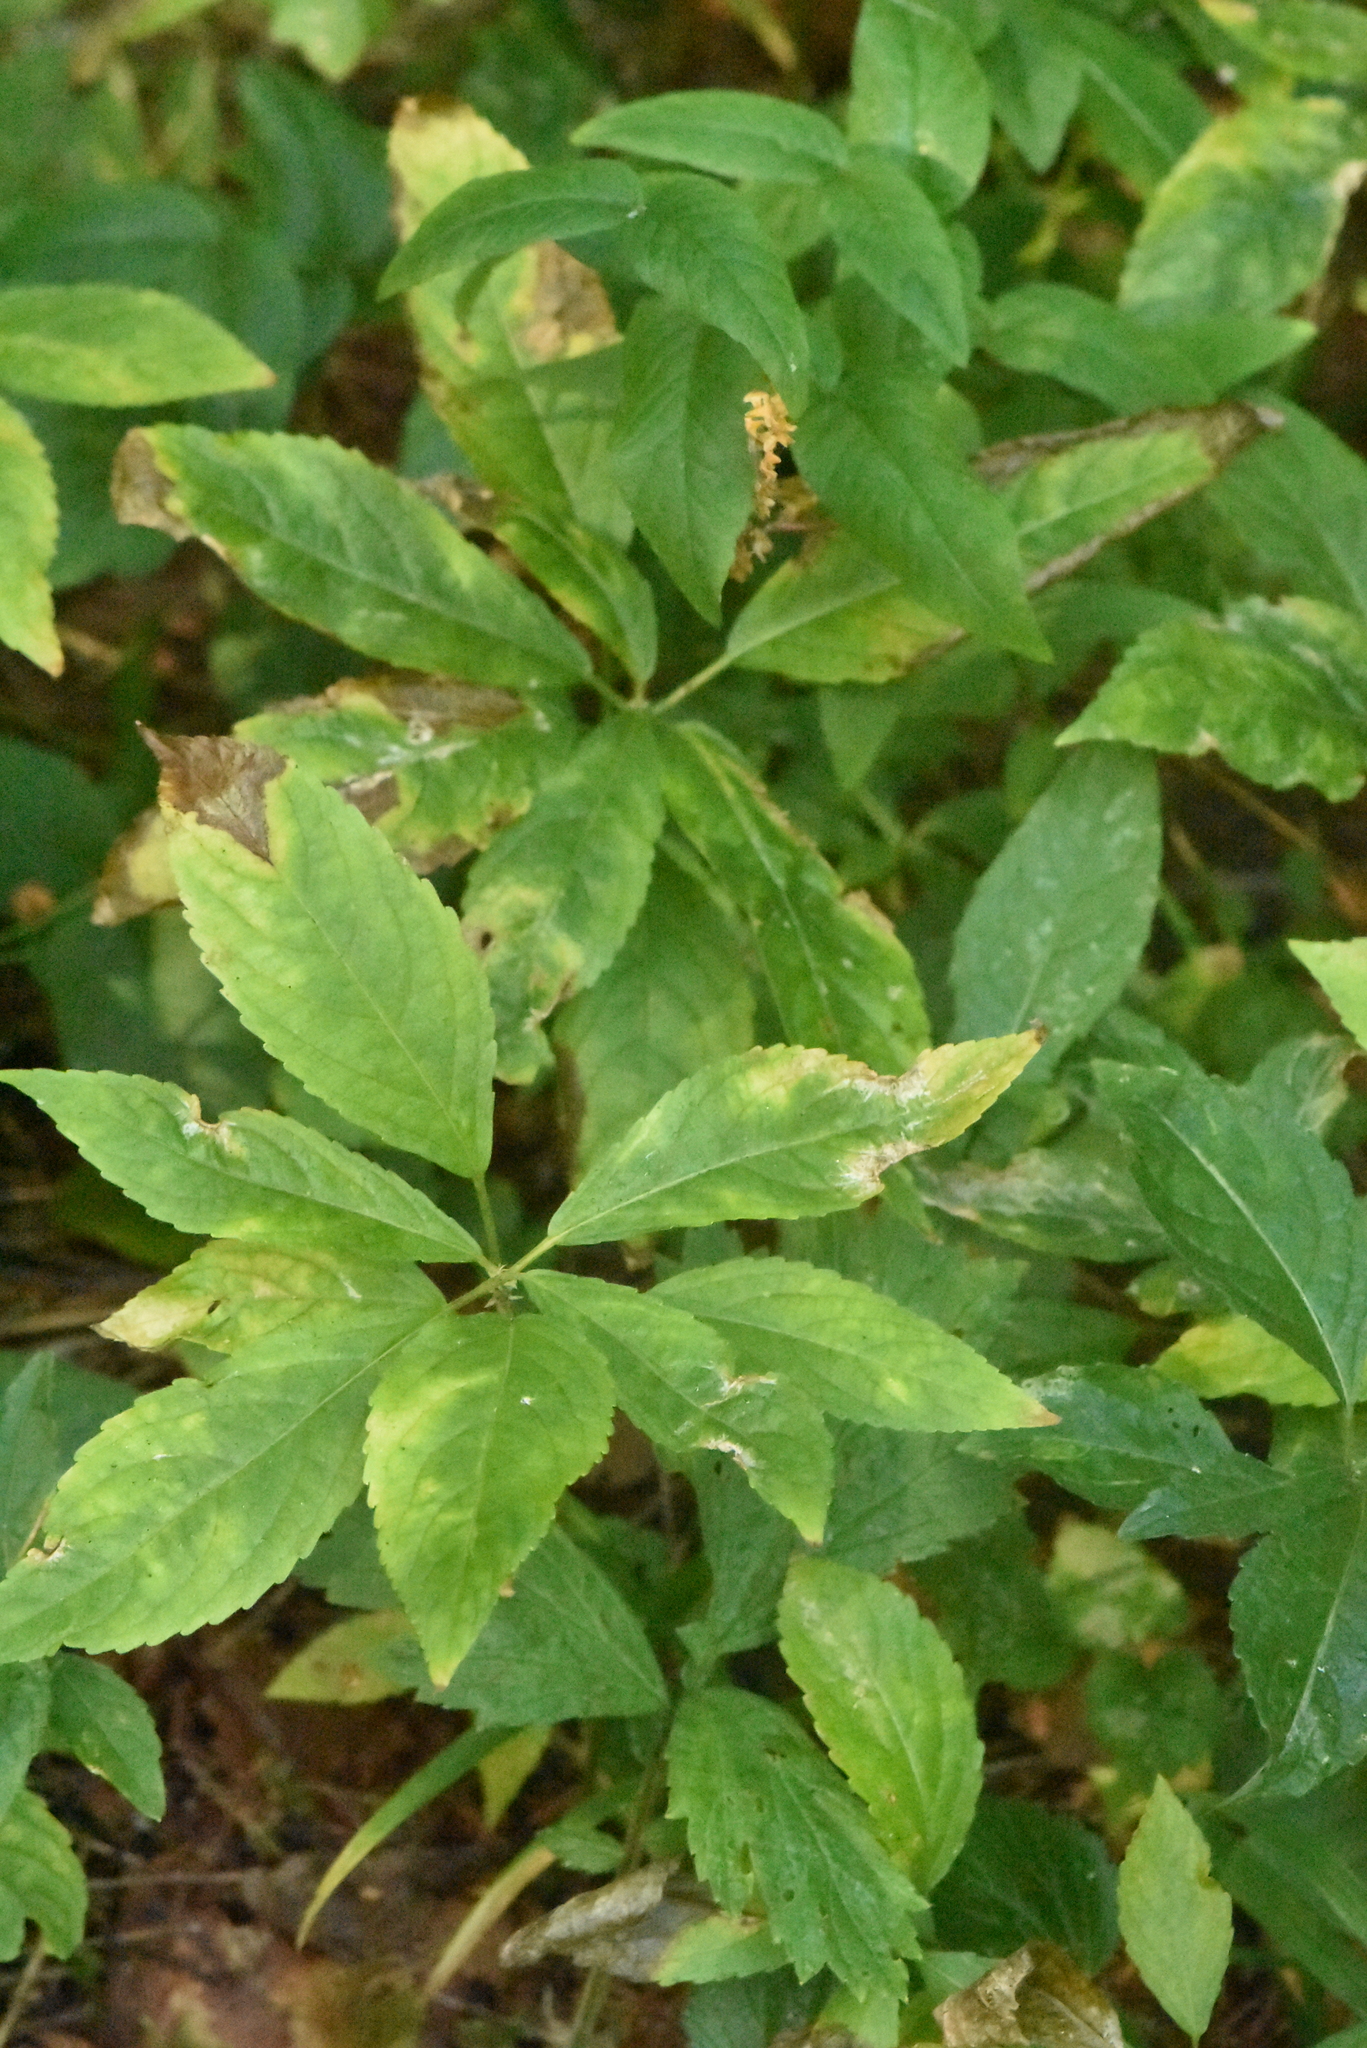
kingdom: Plantae
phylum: Tracheophyta
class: Magnoliopsida
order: Malpighiales
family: Euphorbiaceae
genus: Mercurialis
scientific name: Mercurialis perennis
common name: Dog mercury
